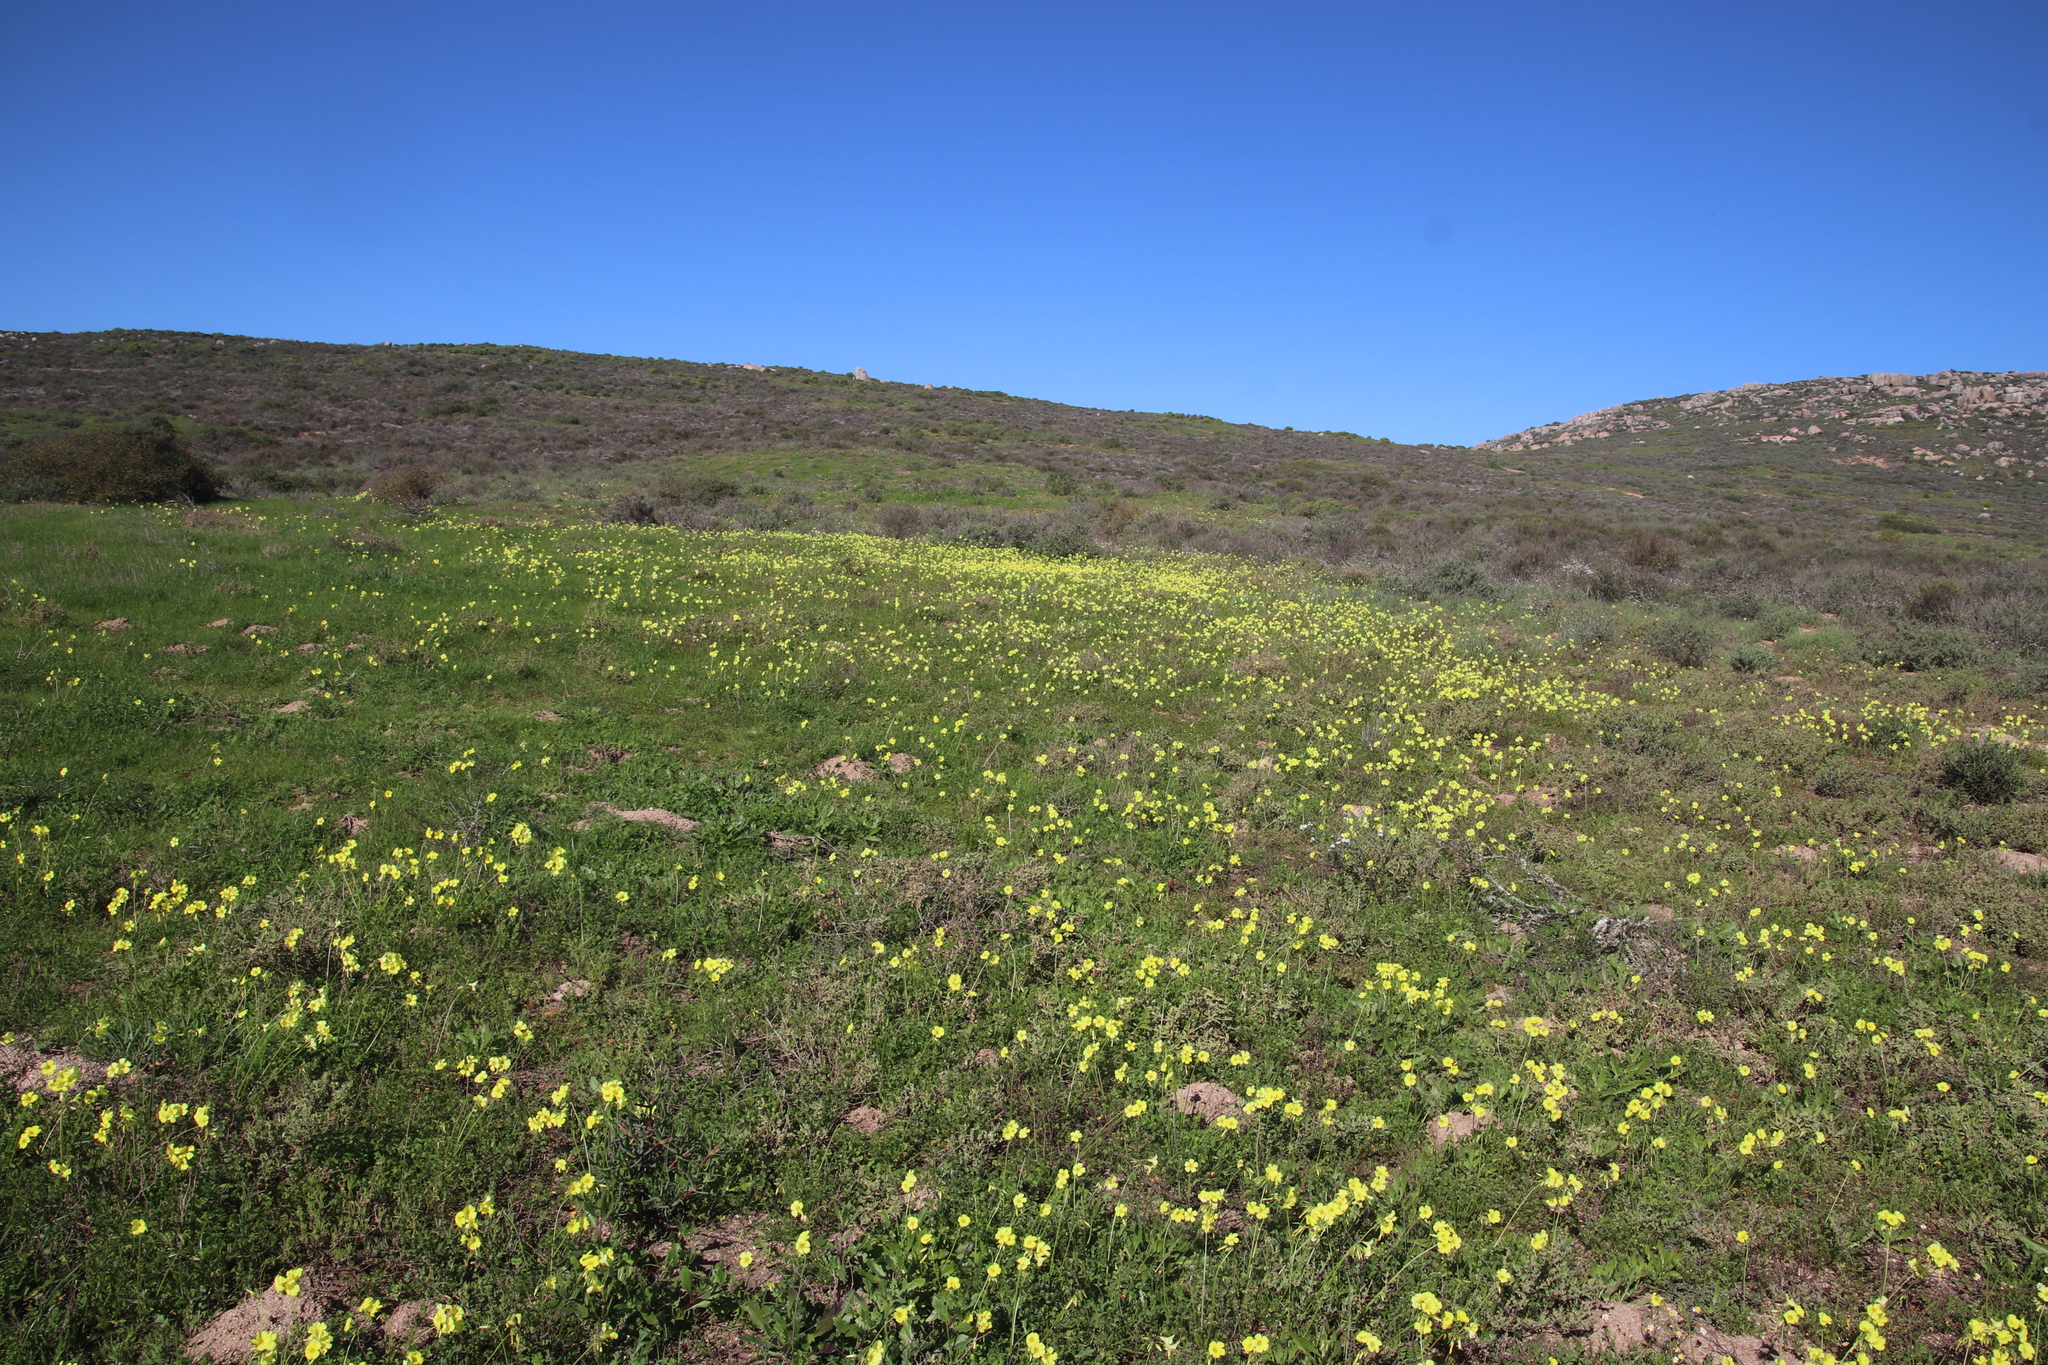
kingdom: Plantae
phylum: Tracheophyta
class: Magnoliopsida
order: Oxalidales
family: Oxalidaceae
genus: Oxalis
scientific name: Oxalis pes-caprae
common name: Bermuda-buttercup
